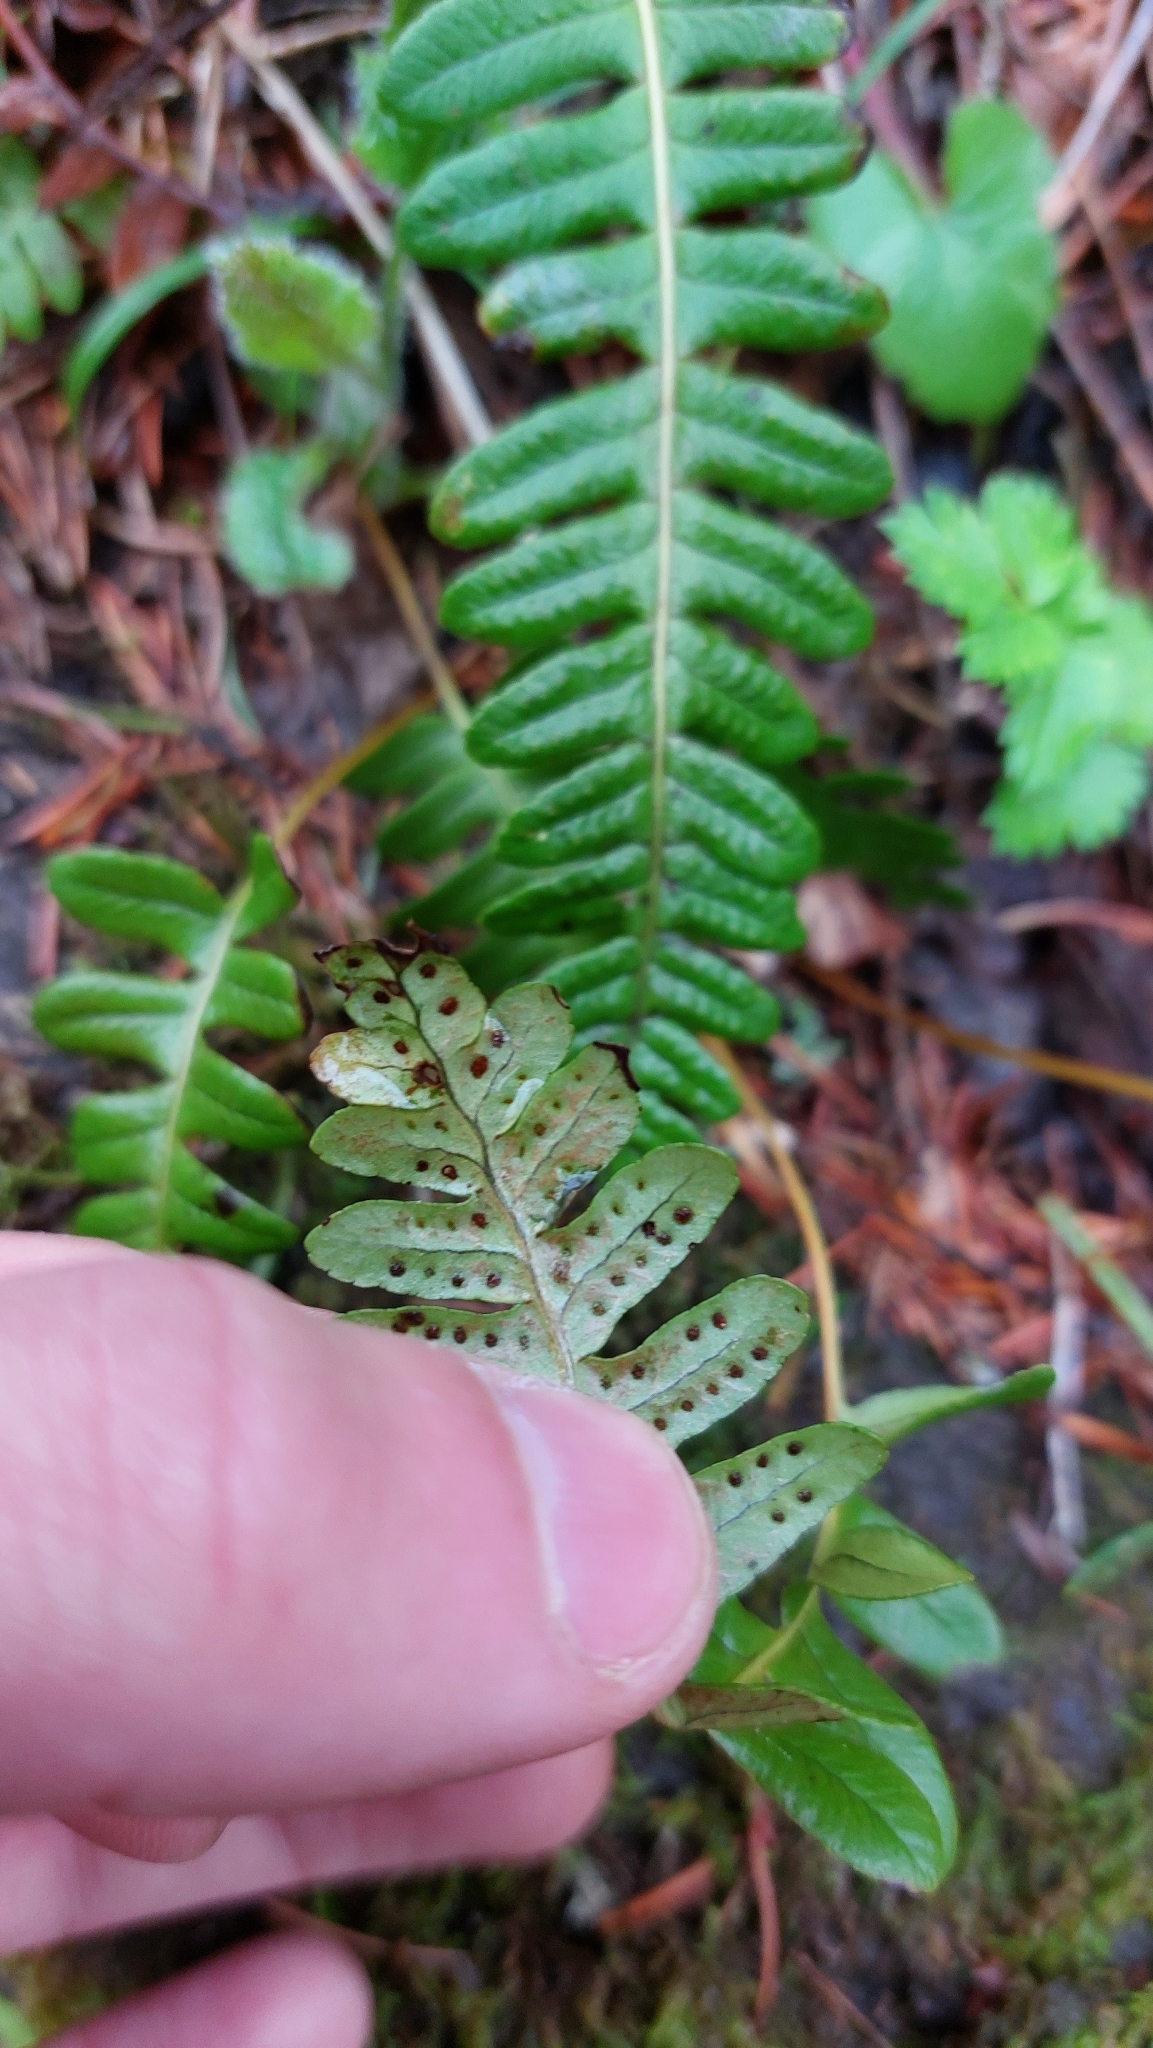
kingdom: Plantae
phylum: Tracheophyta
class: Polypodiopsida
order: Polypodiales
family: Polypodiaceae
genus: Polypodium
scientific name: Polypodium vulgare
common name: Common polypody
